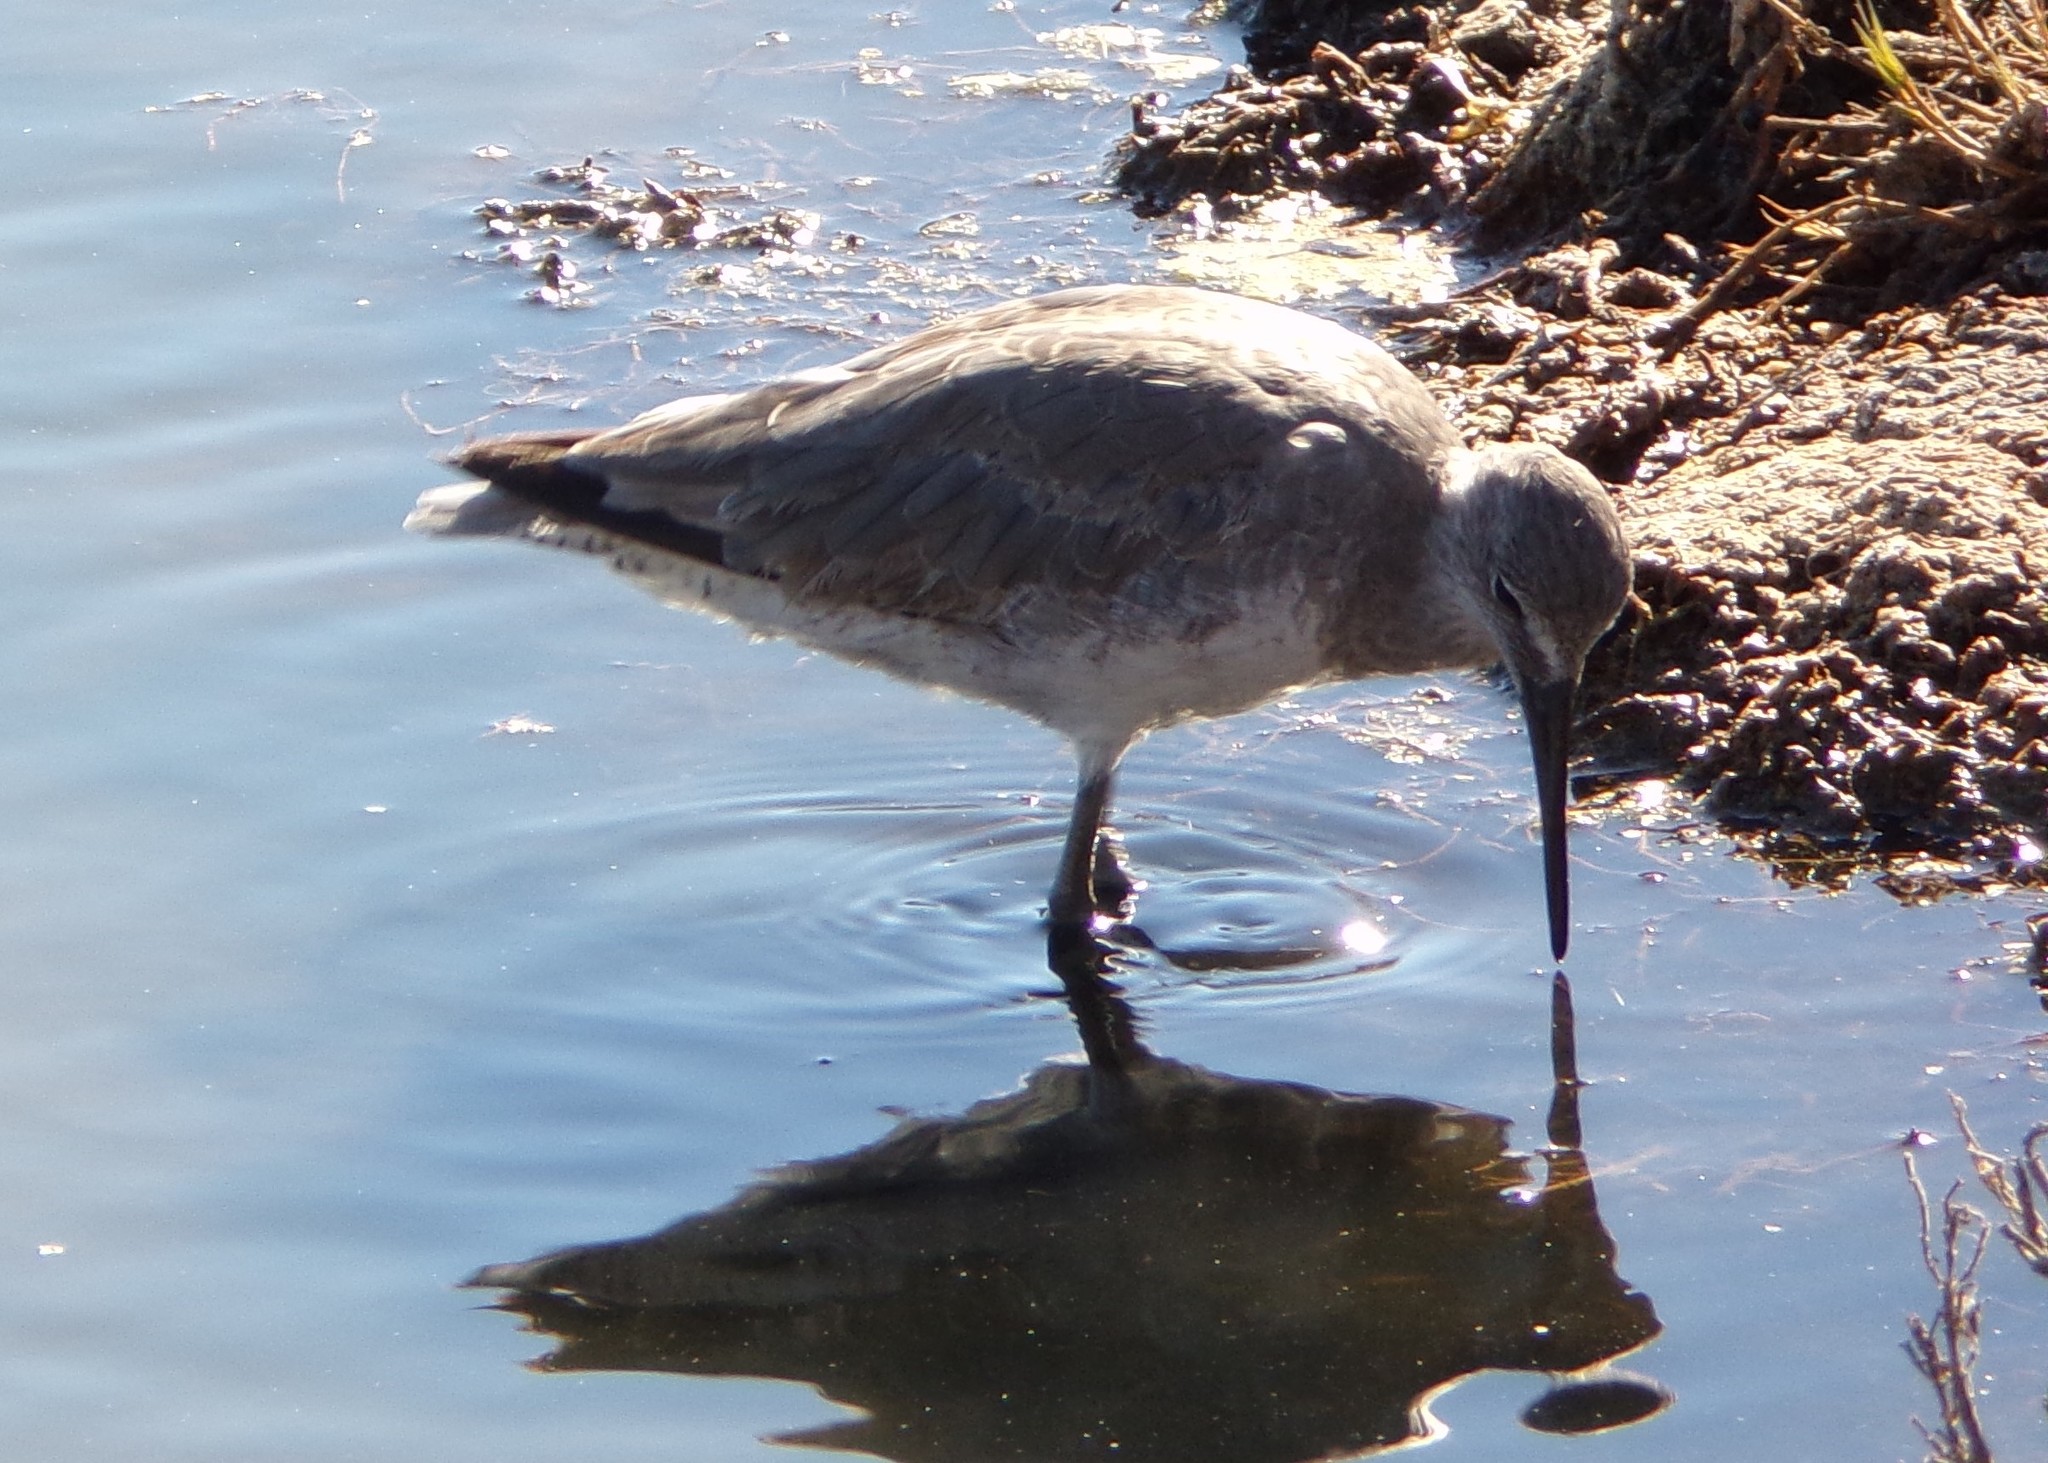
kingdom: Animalia
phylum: Chordata
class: Aves
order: Charadriiformes
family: Scolopacidae
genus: Tringa
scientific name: Tringa semipalmata
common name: Willet
